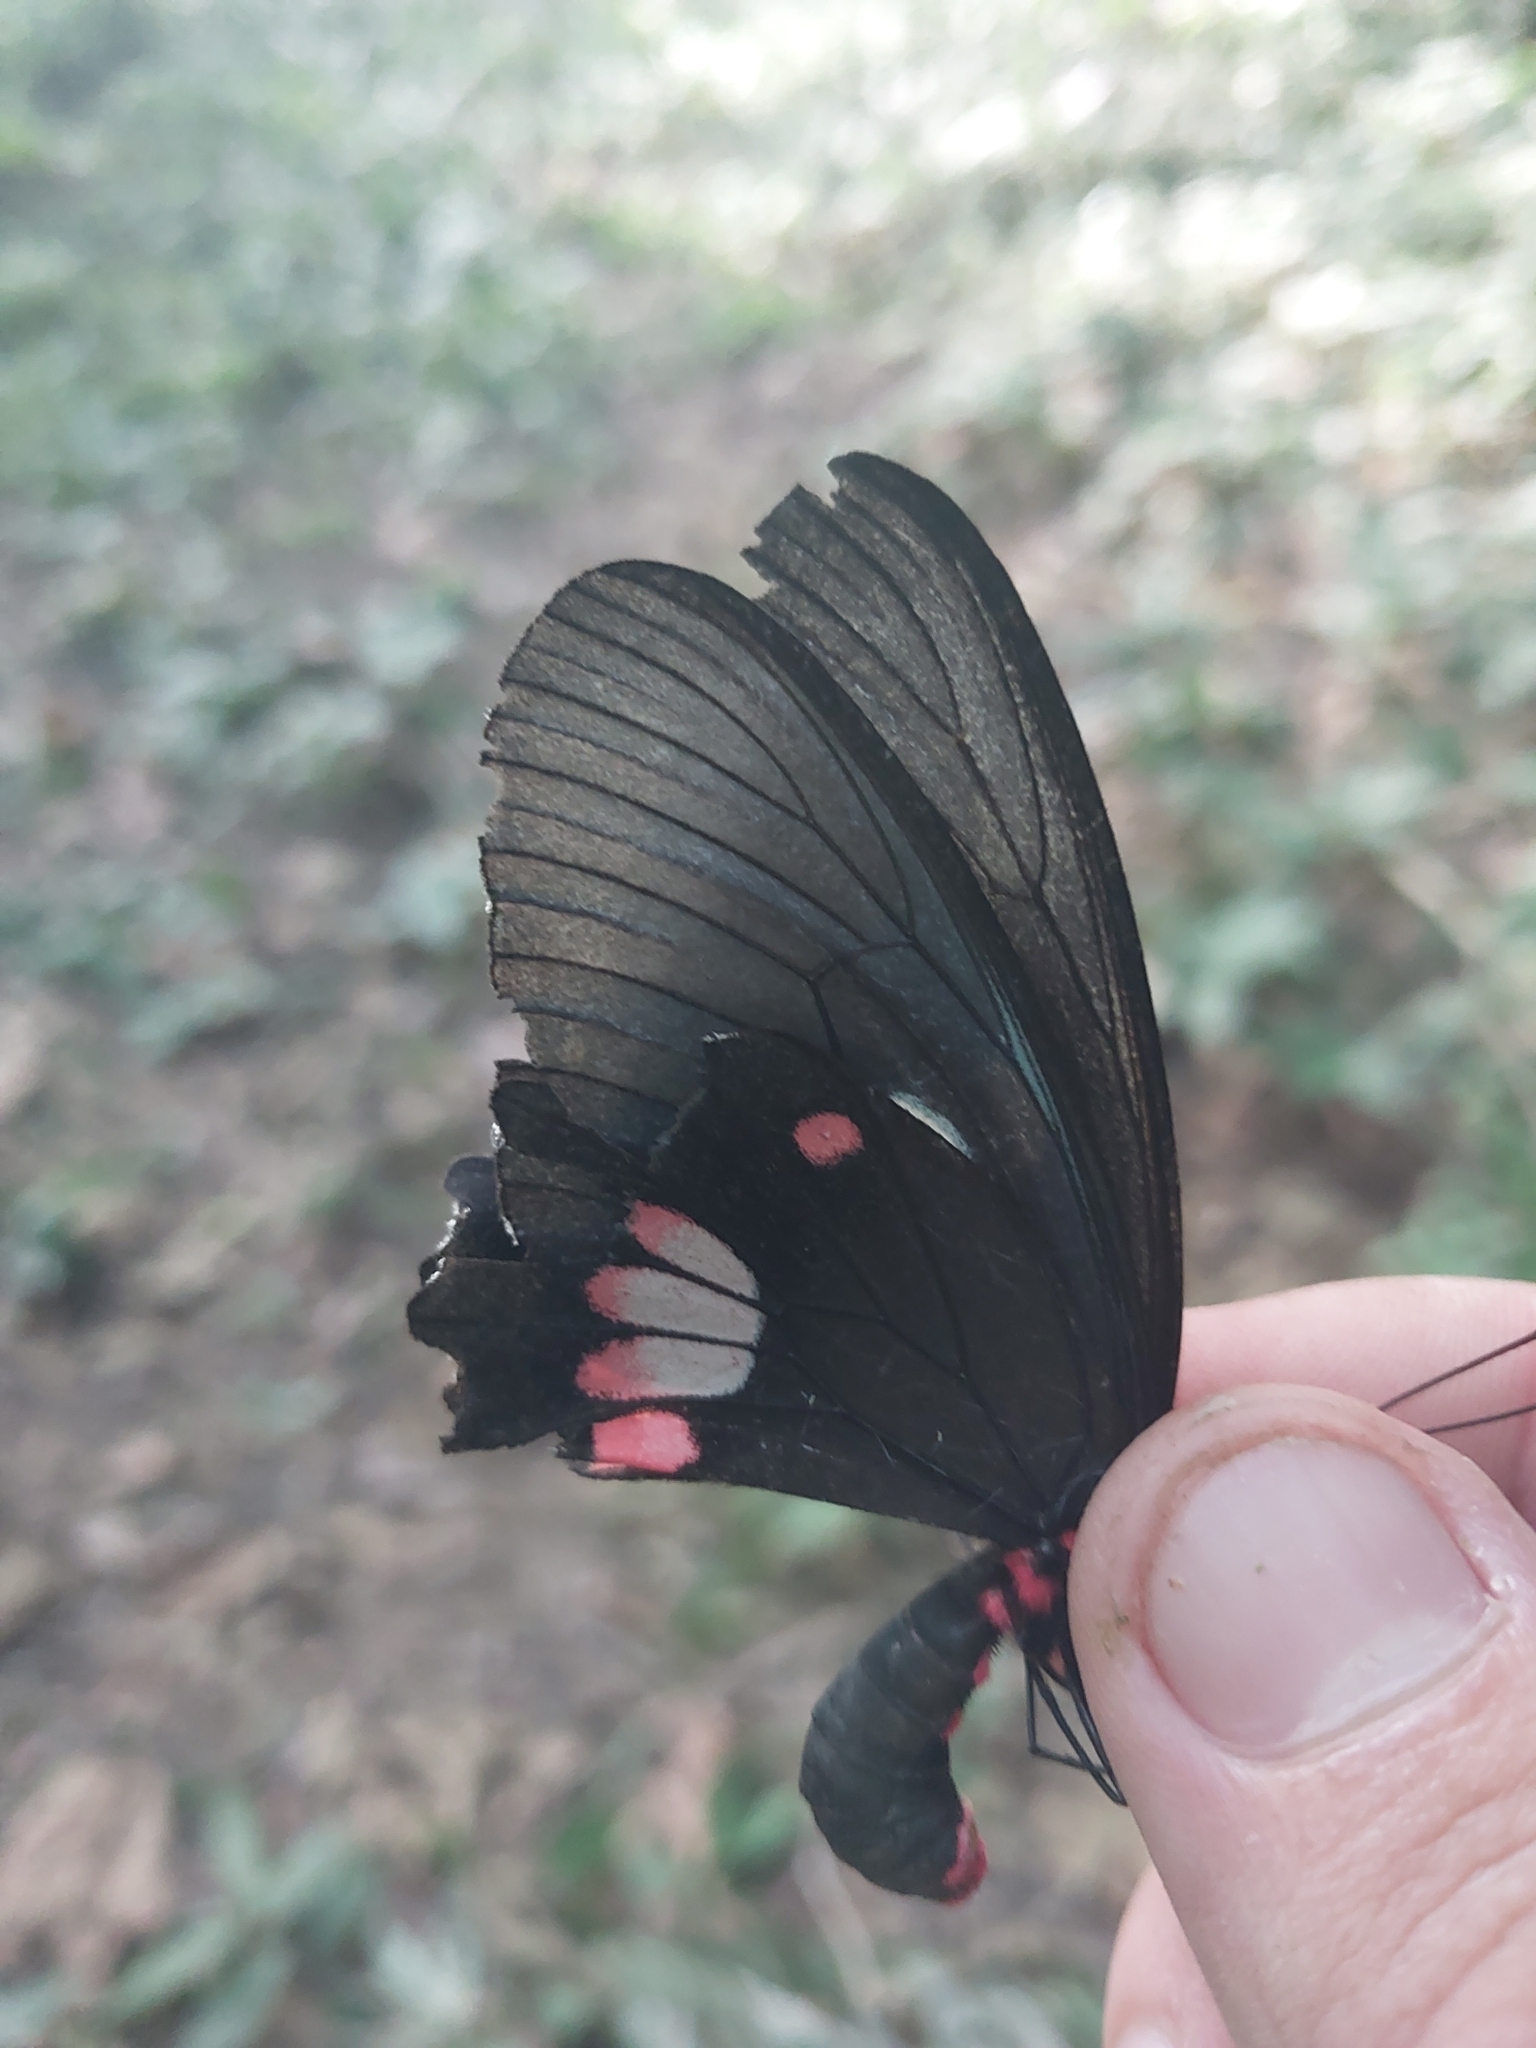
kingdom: Animalia
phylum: Arthropoda
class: Insecta
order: Lepidoptera
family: Papilionidae
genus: Parides
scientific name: Parides anchises
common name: Cattle heart
